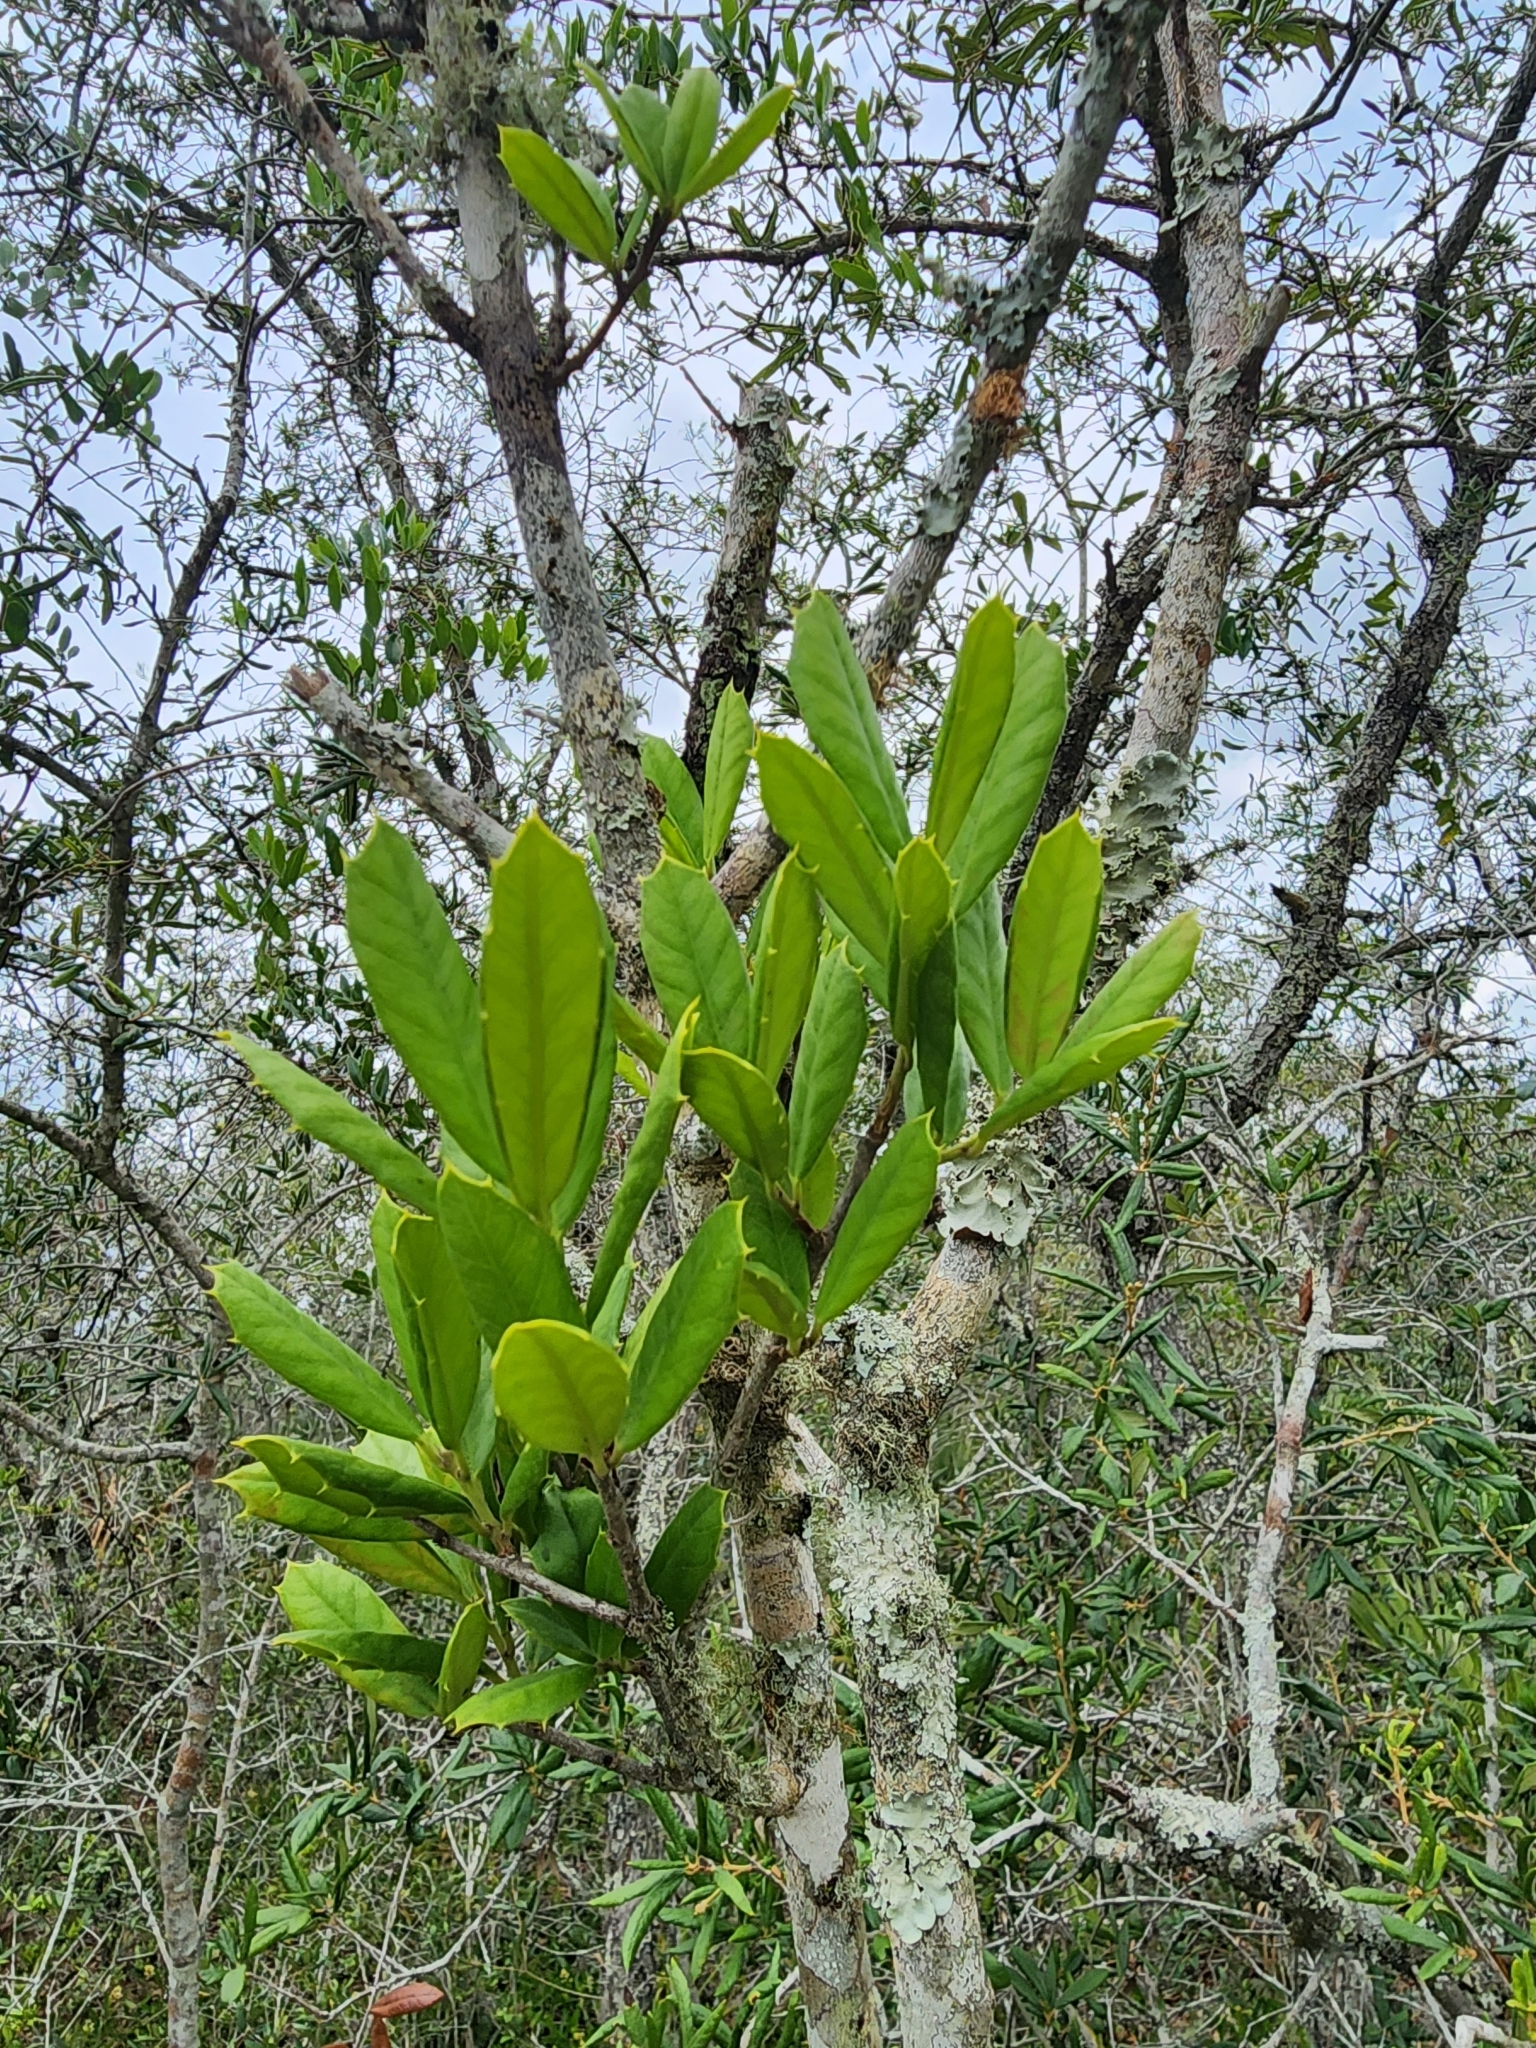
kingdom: Plantae
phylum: Tracheophyta
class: Magnoliopsida
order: Aquifoliales
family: Aquifoliaceae
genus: Ilex
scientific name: Ilex opaca
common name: American holly
